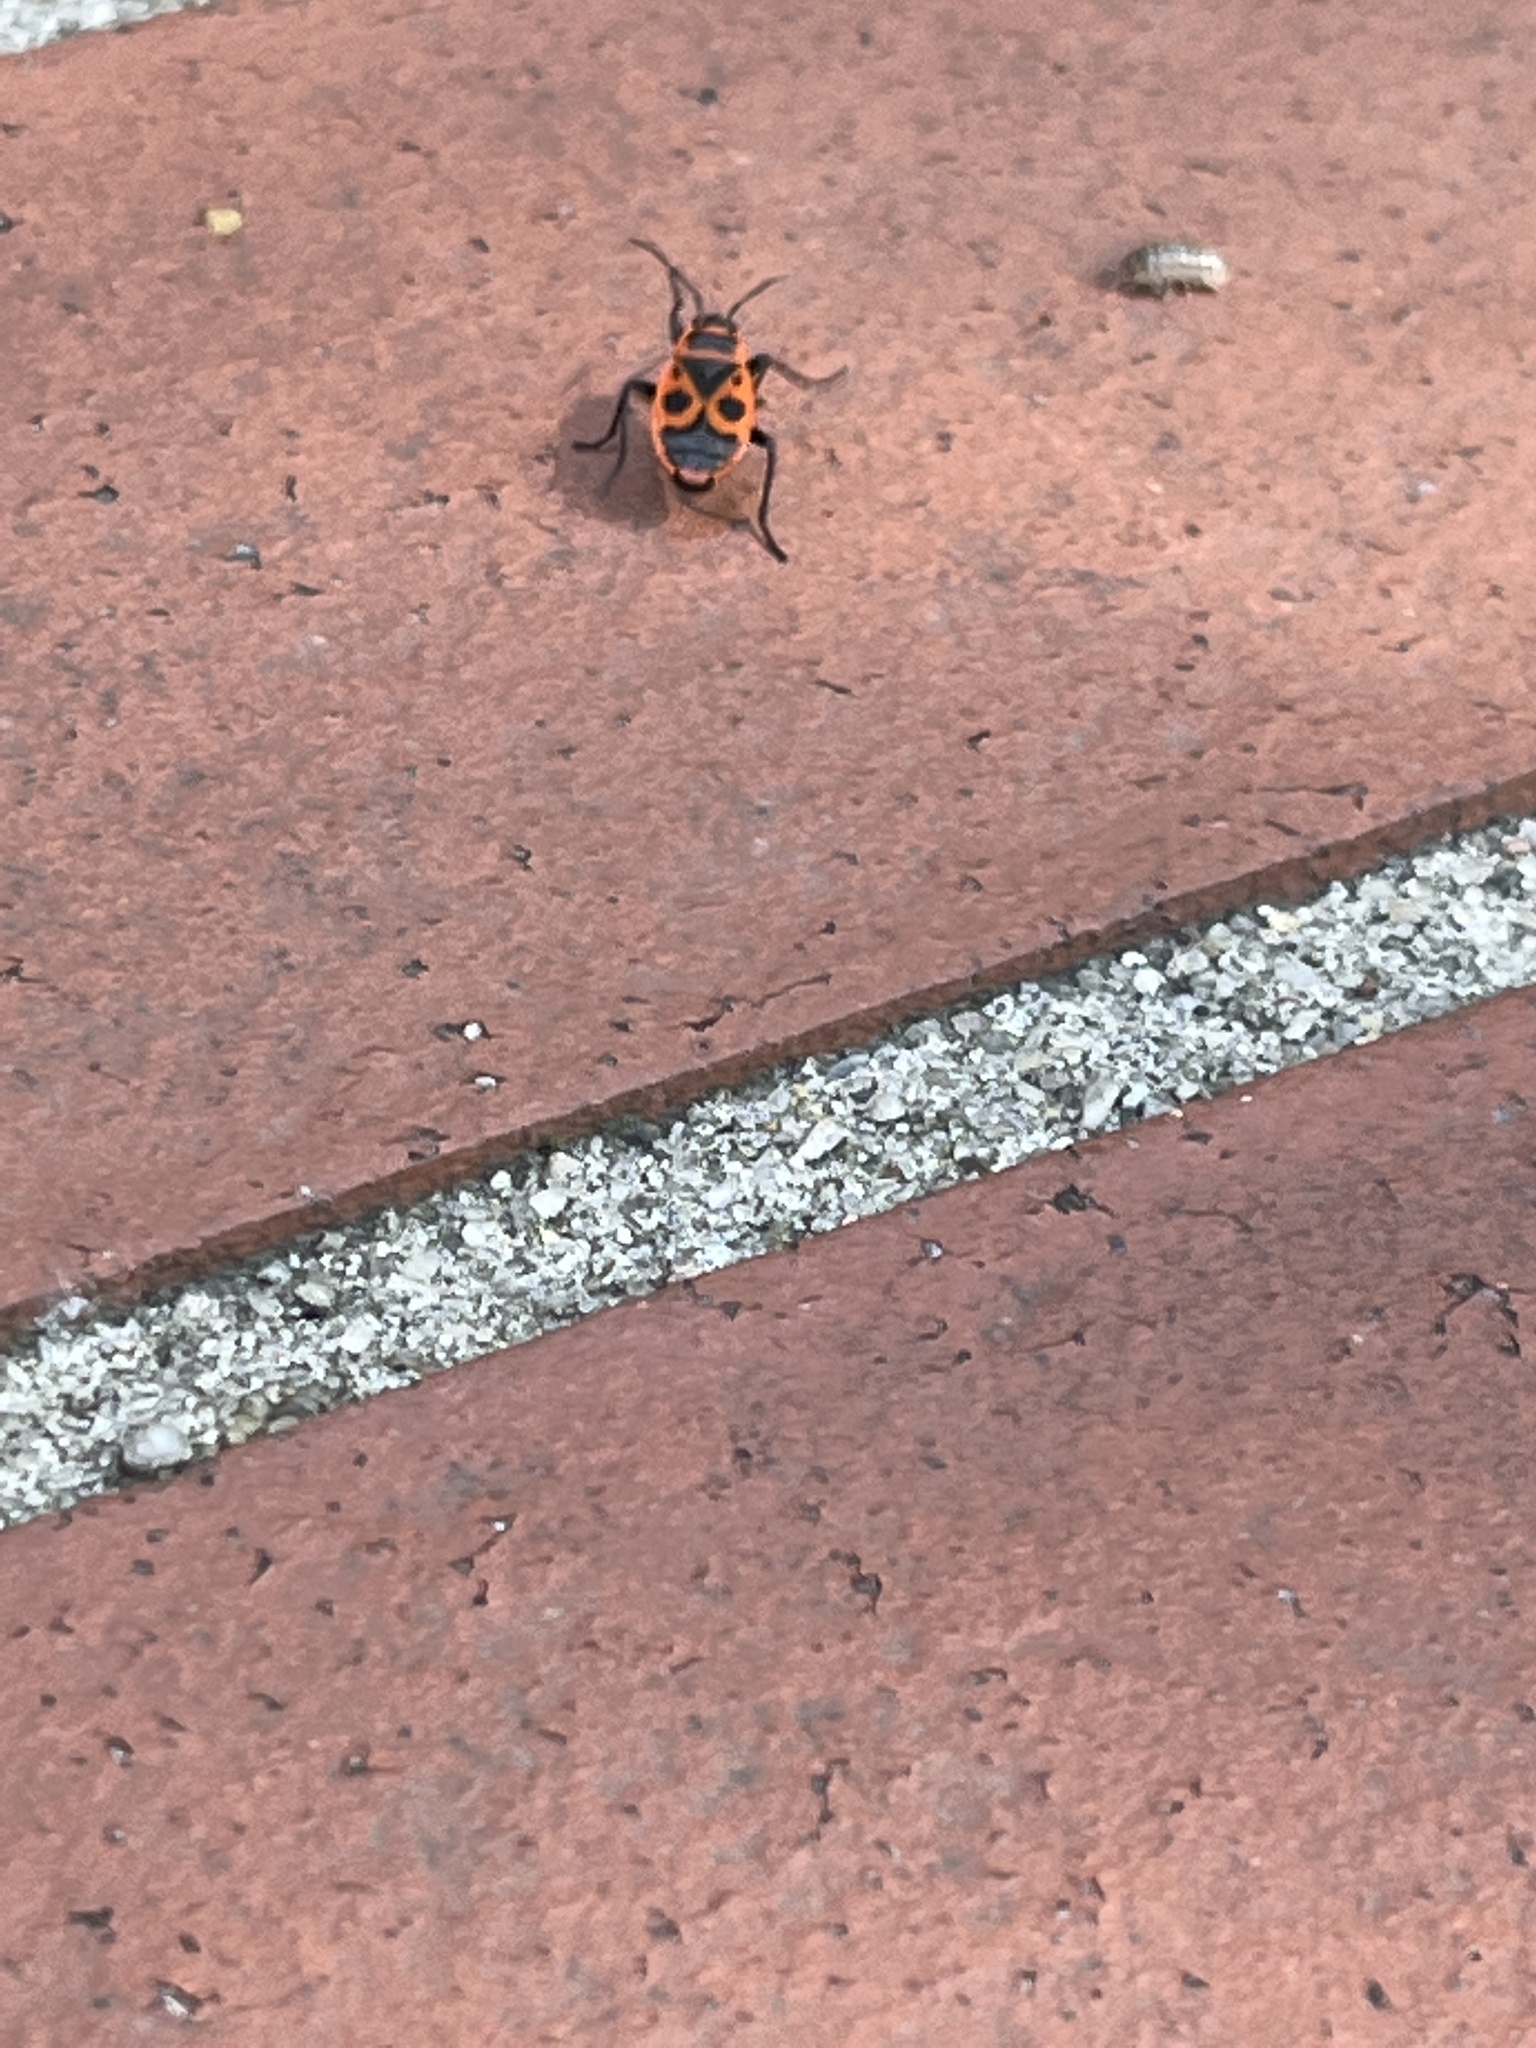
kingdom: Animalia
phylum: Arthropoda
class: Insecta
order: Hemiptera
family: Pyrrhocoridae
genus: Pyrrhocoris
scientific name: Pyrrhocoris apterus
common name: Firebug
